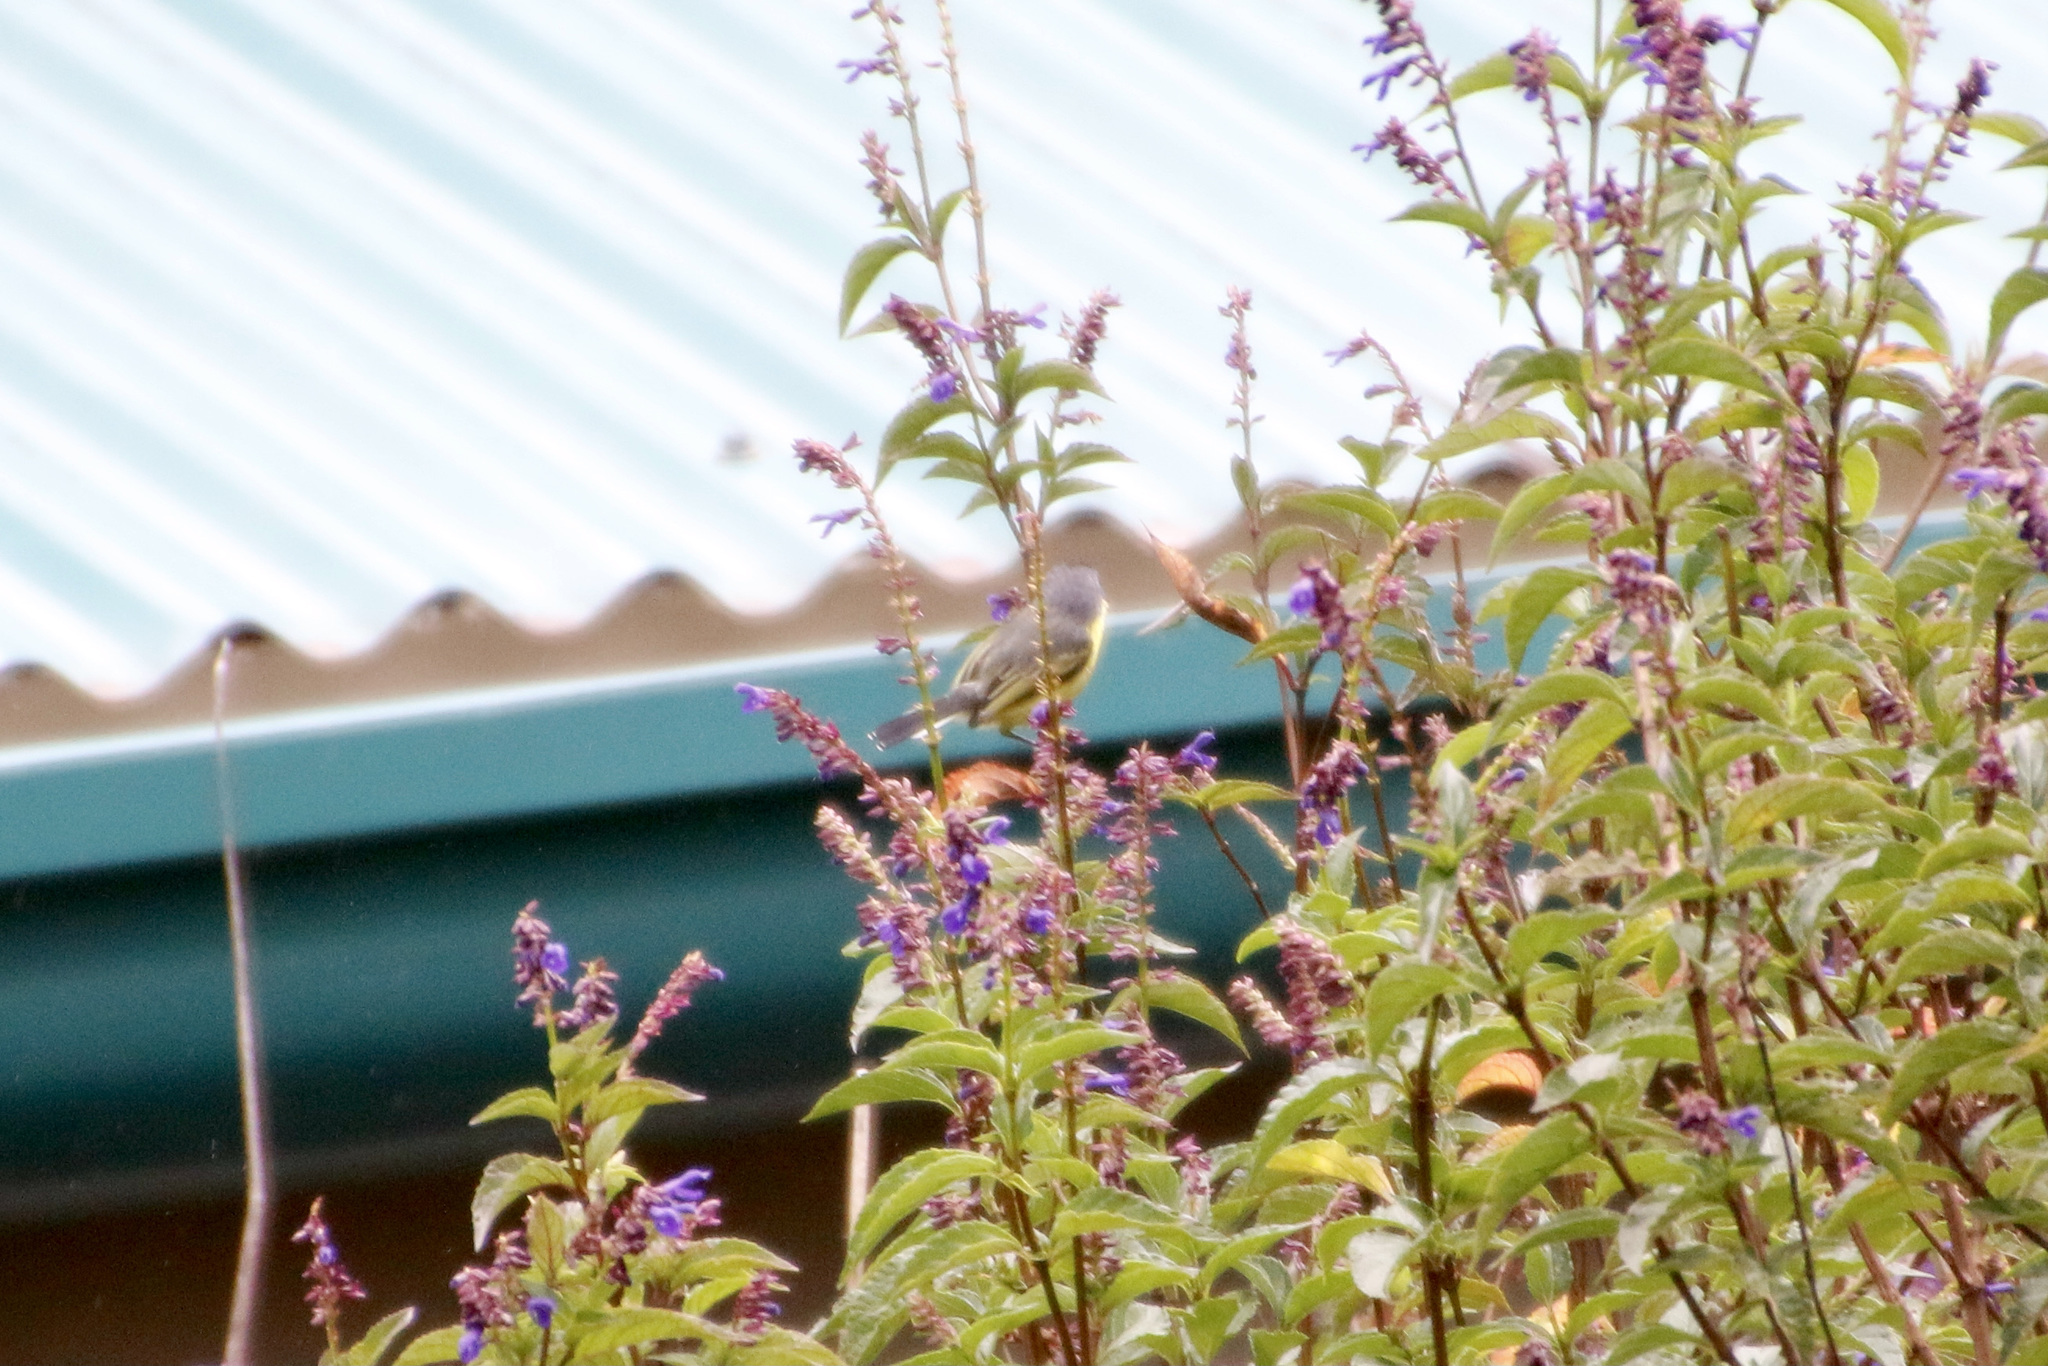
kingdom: Animalia
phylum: Chordata
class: Aves
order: Passeriformes
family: Tyrannidae
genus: Todirostrum
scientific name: Todirostrum cinereum
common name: Common tody-flycatcher
